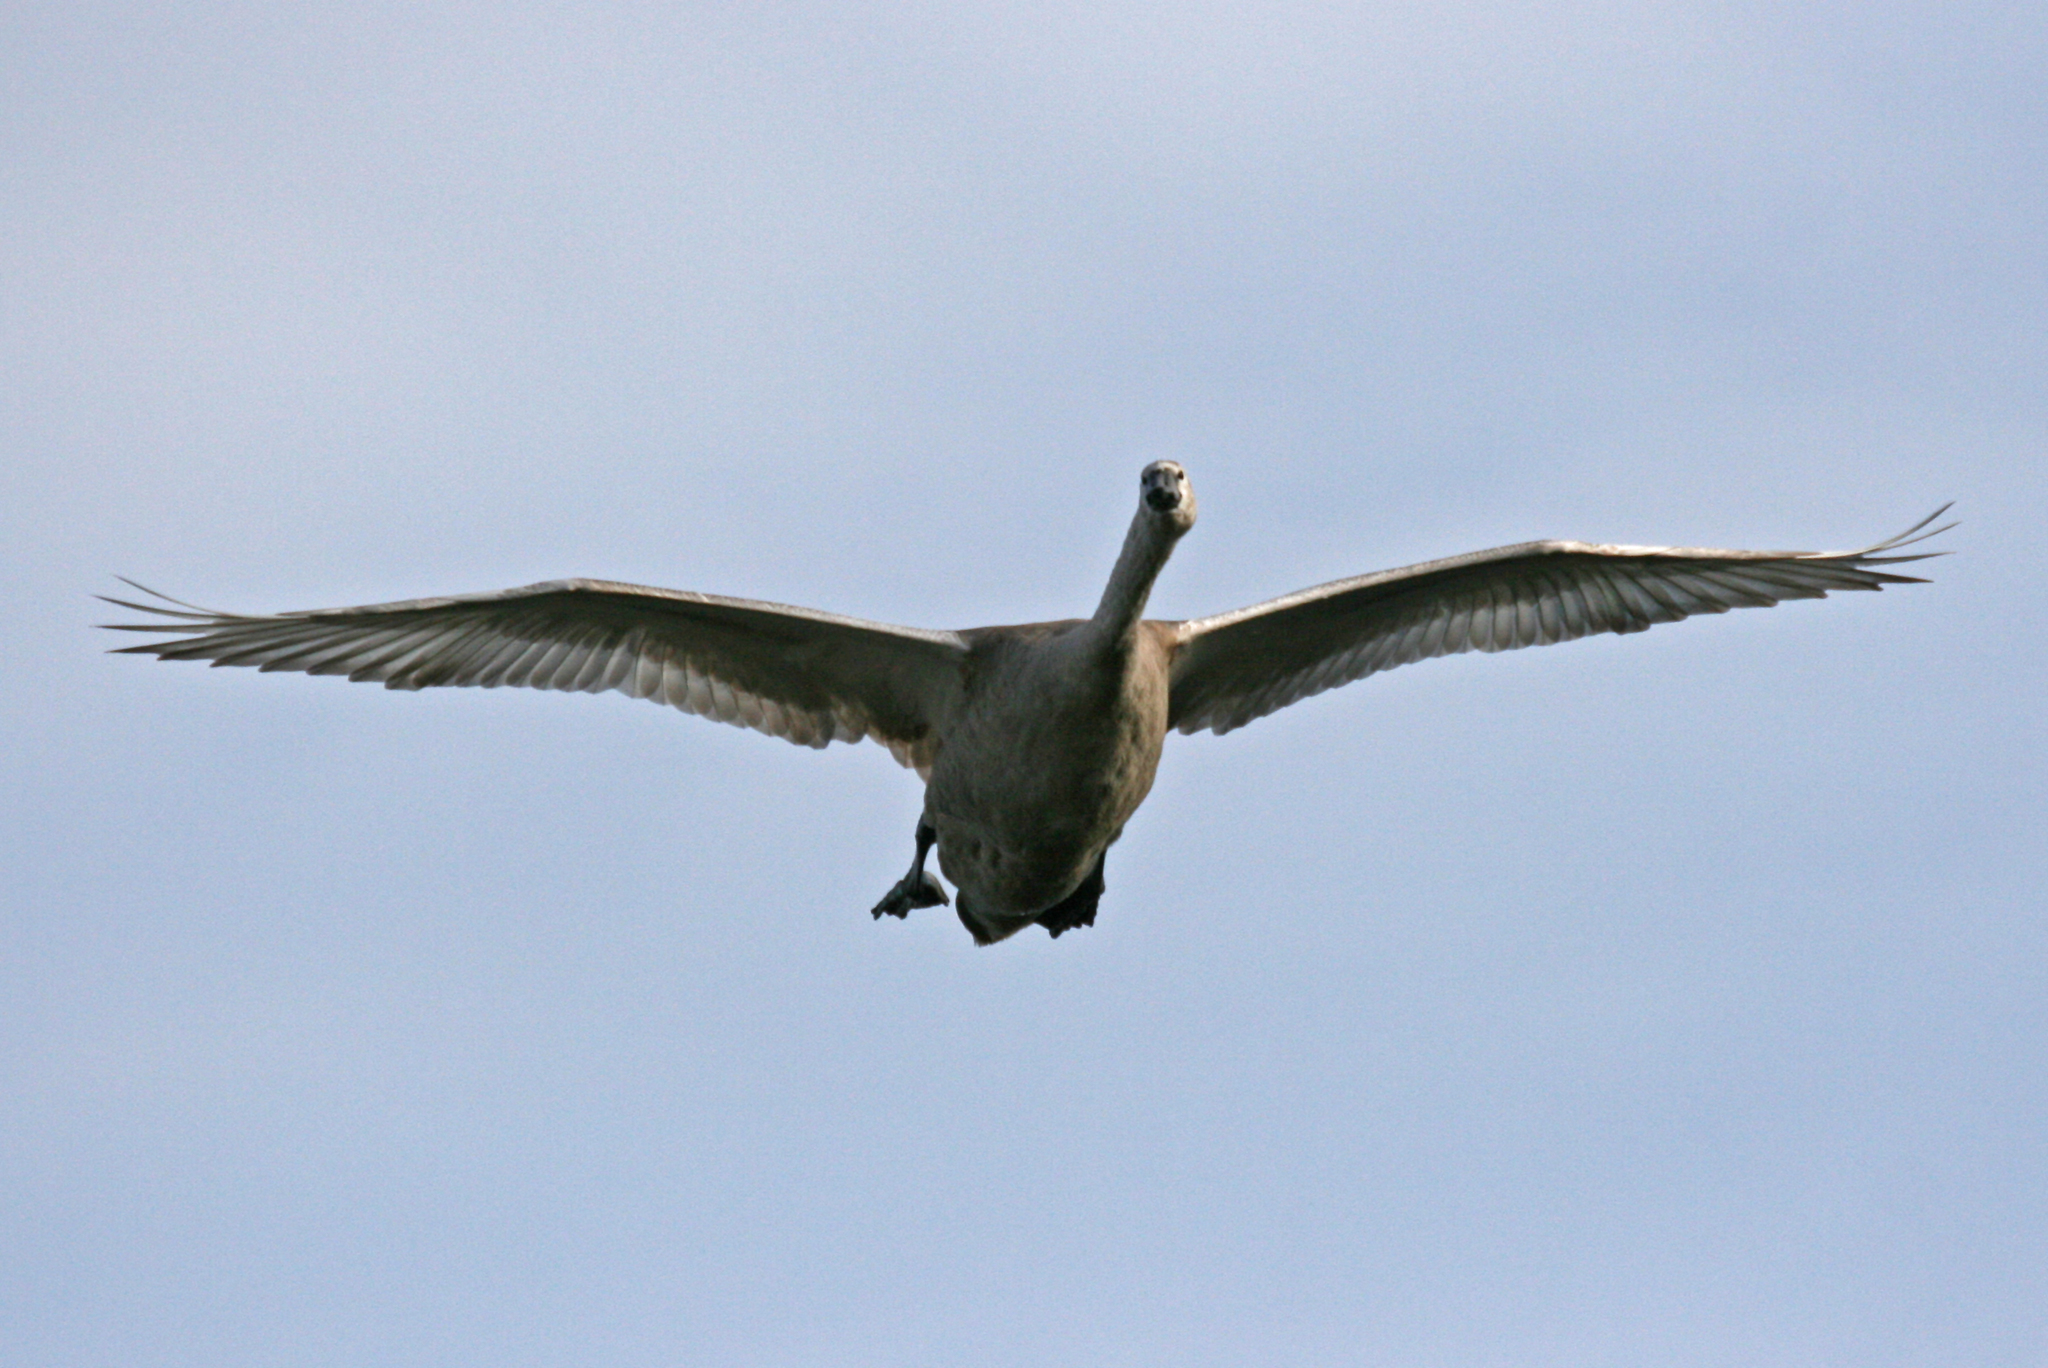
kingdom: Animalia
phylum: Chordata
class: Aves
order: Anseriformes
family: Anatidae
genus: Cygnus
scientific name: Cygnus olor
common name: Mute swan
